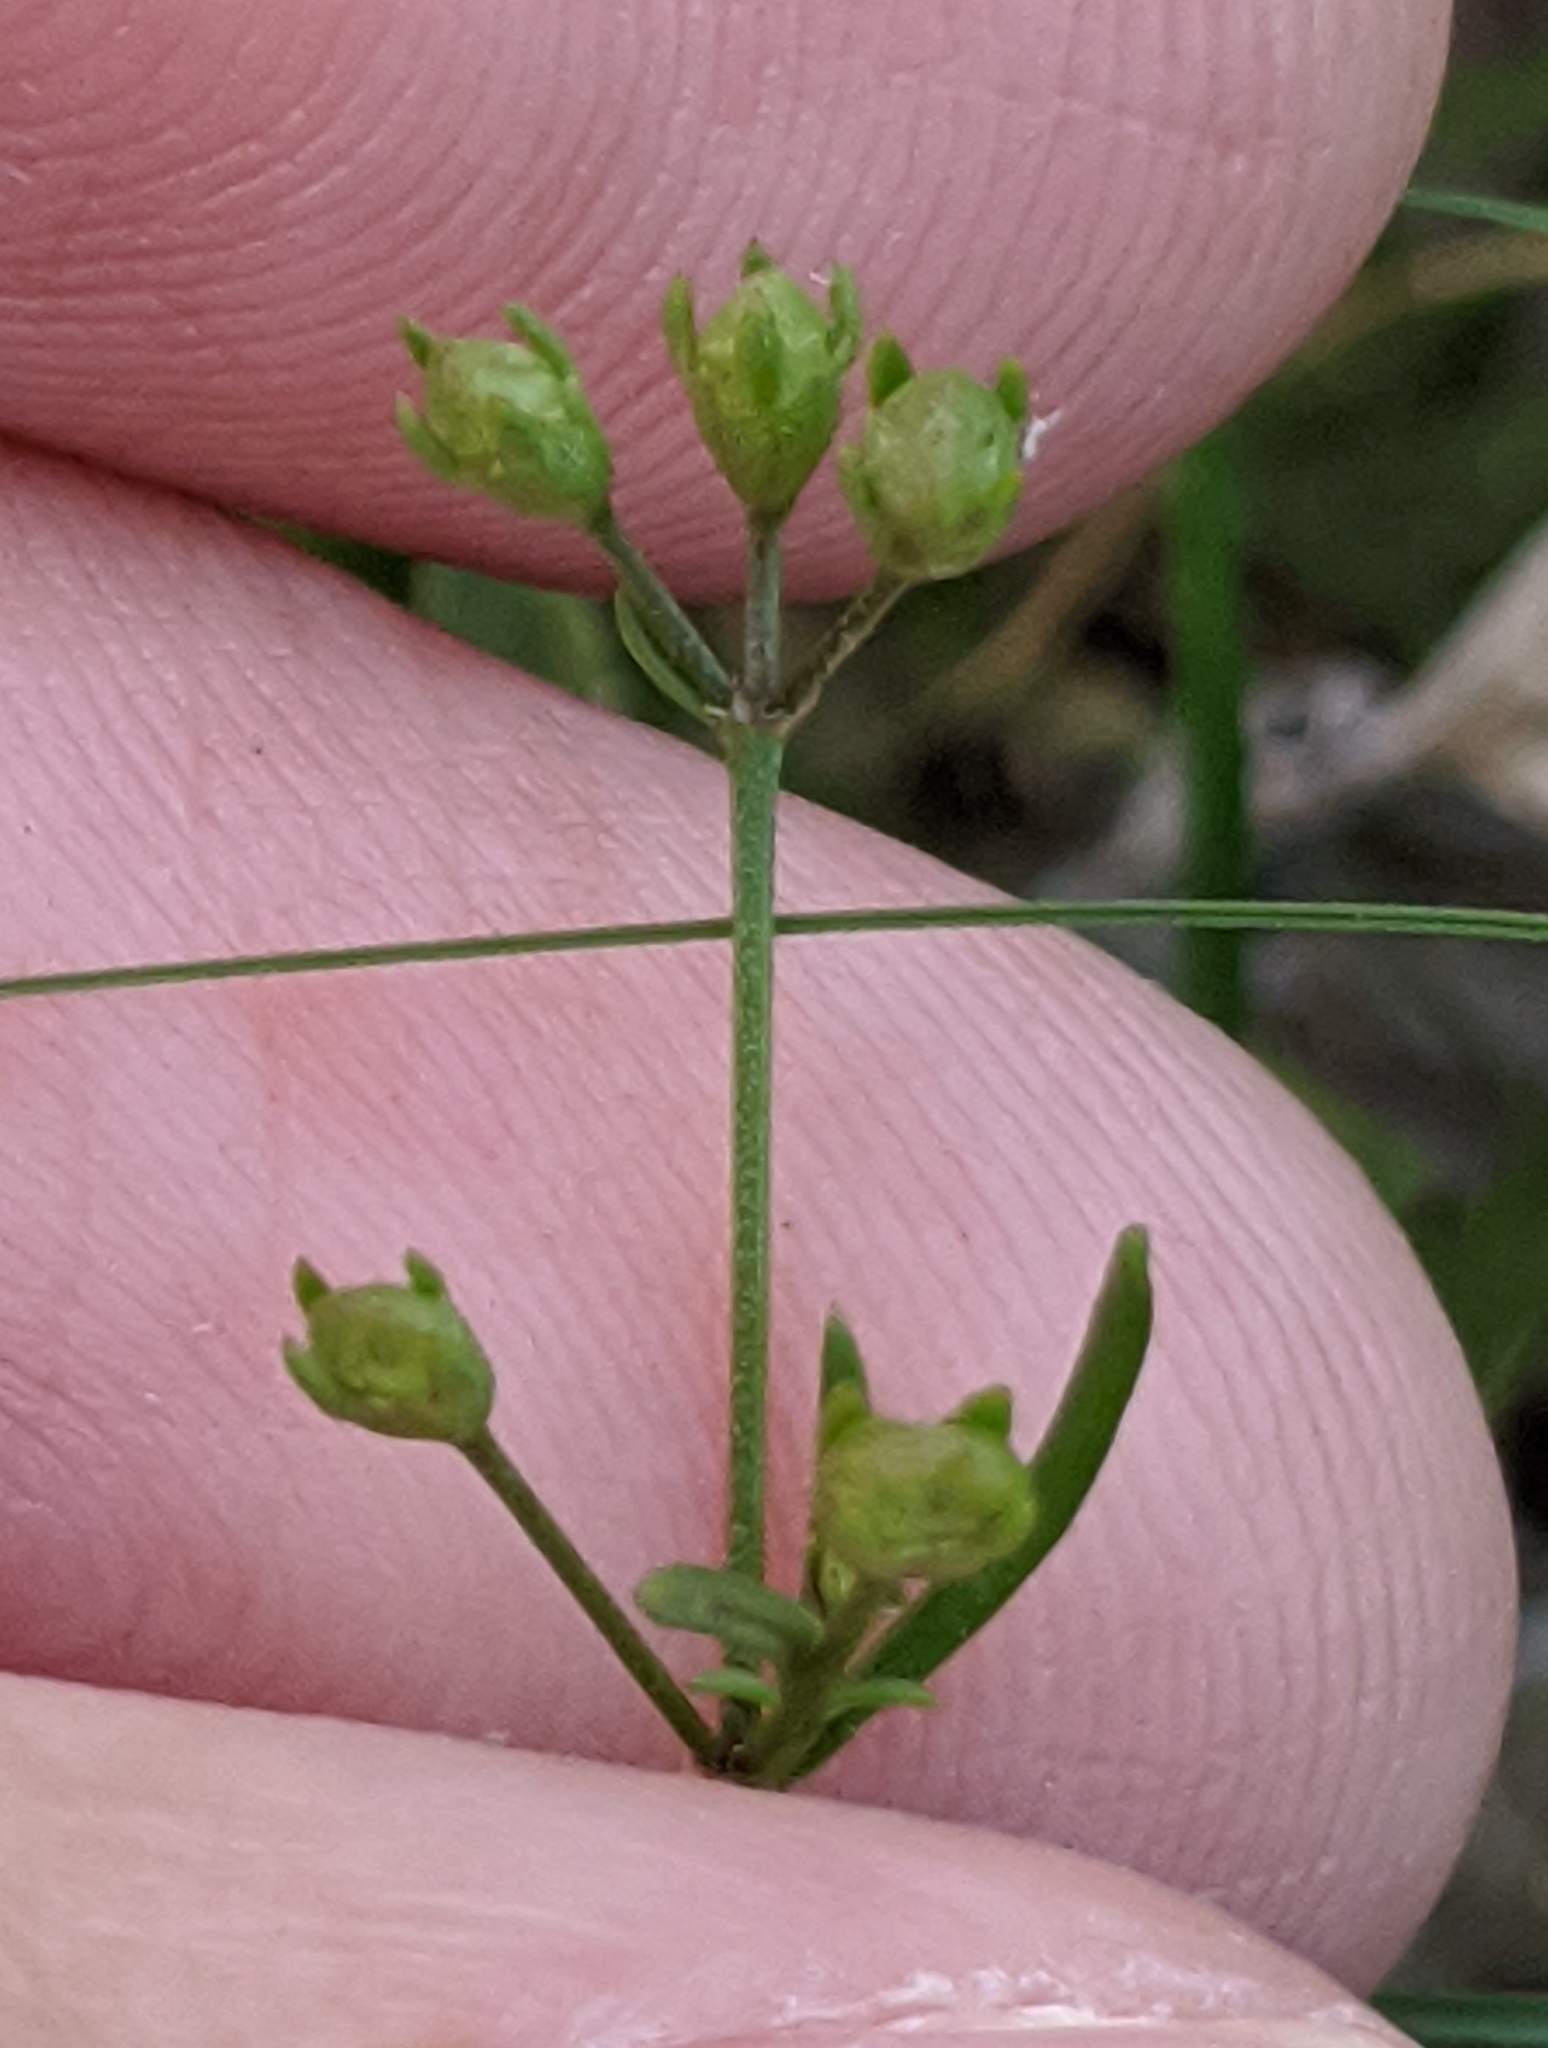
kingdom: Plantae
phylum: Tracheophyta
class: Magnoliopsida
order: Gentianales
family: Rubiaceae
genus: Stenaria
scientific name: Stenaria nigricans
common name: Diamondflowers
